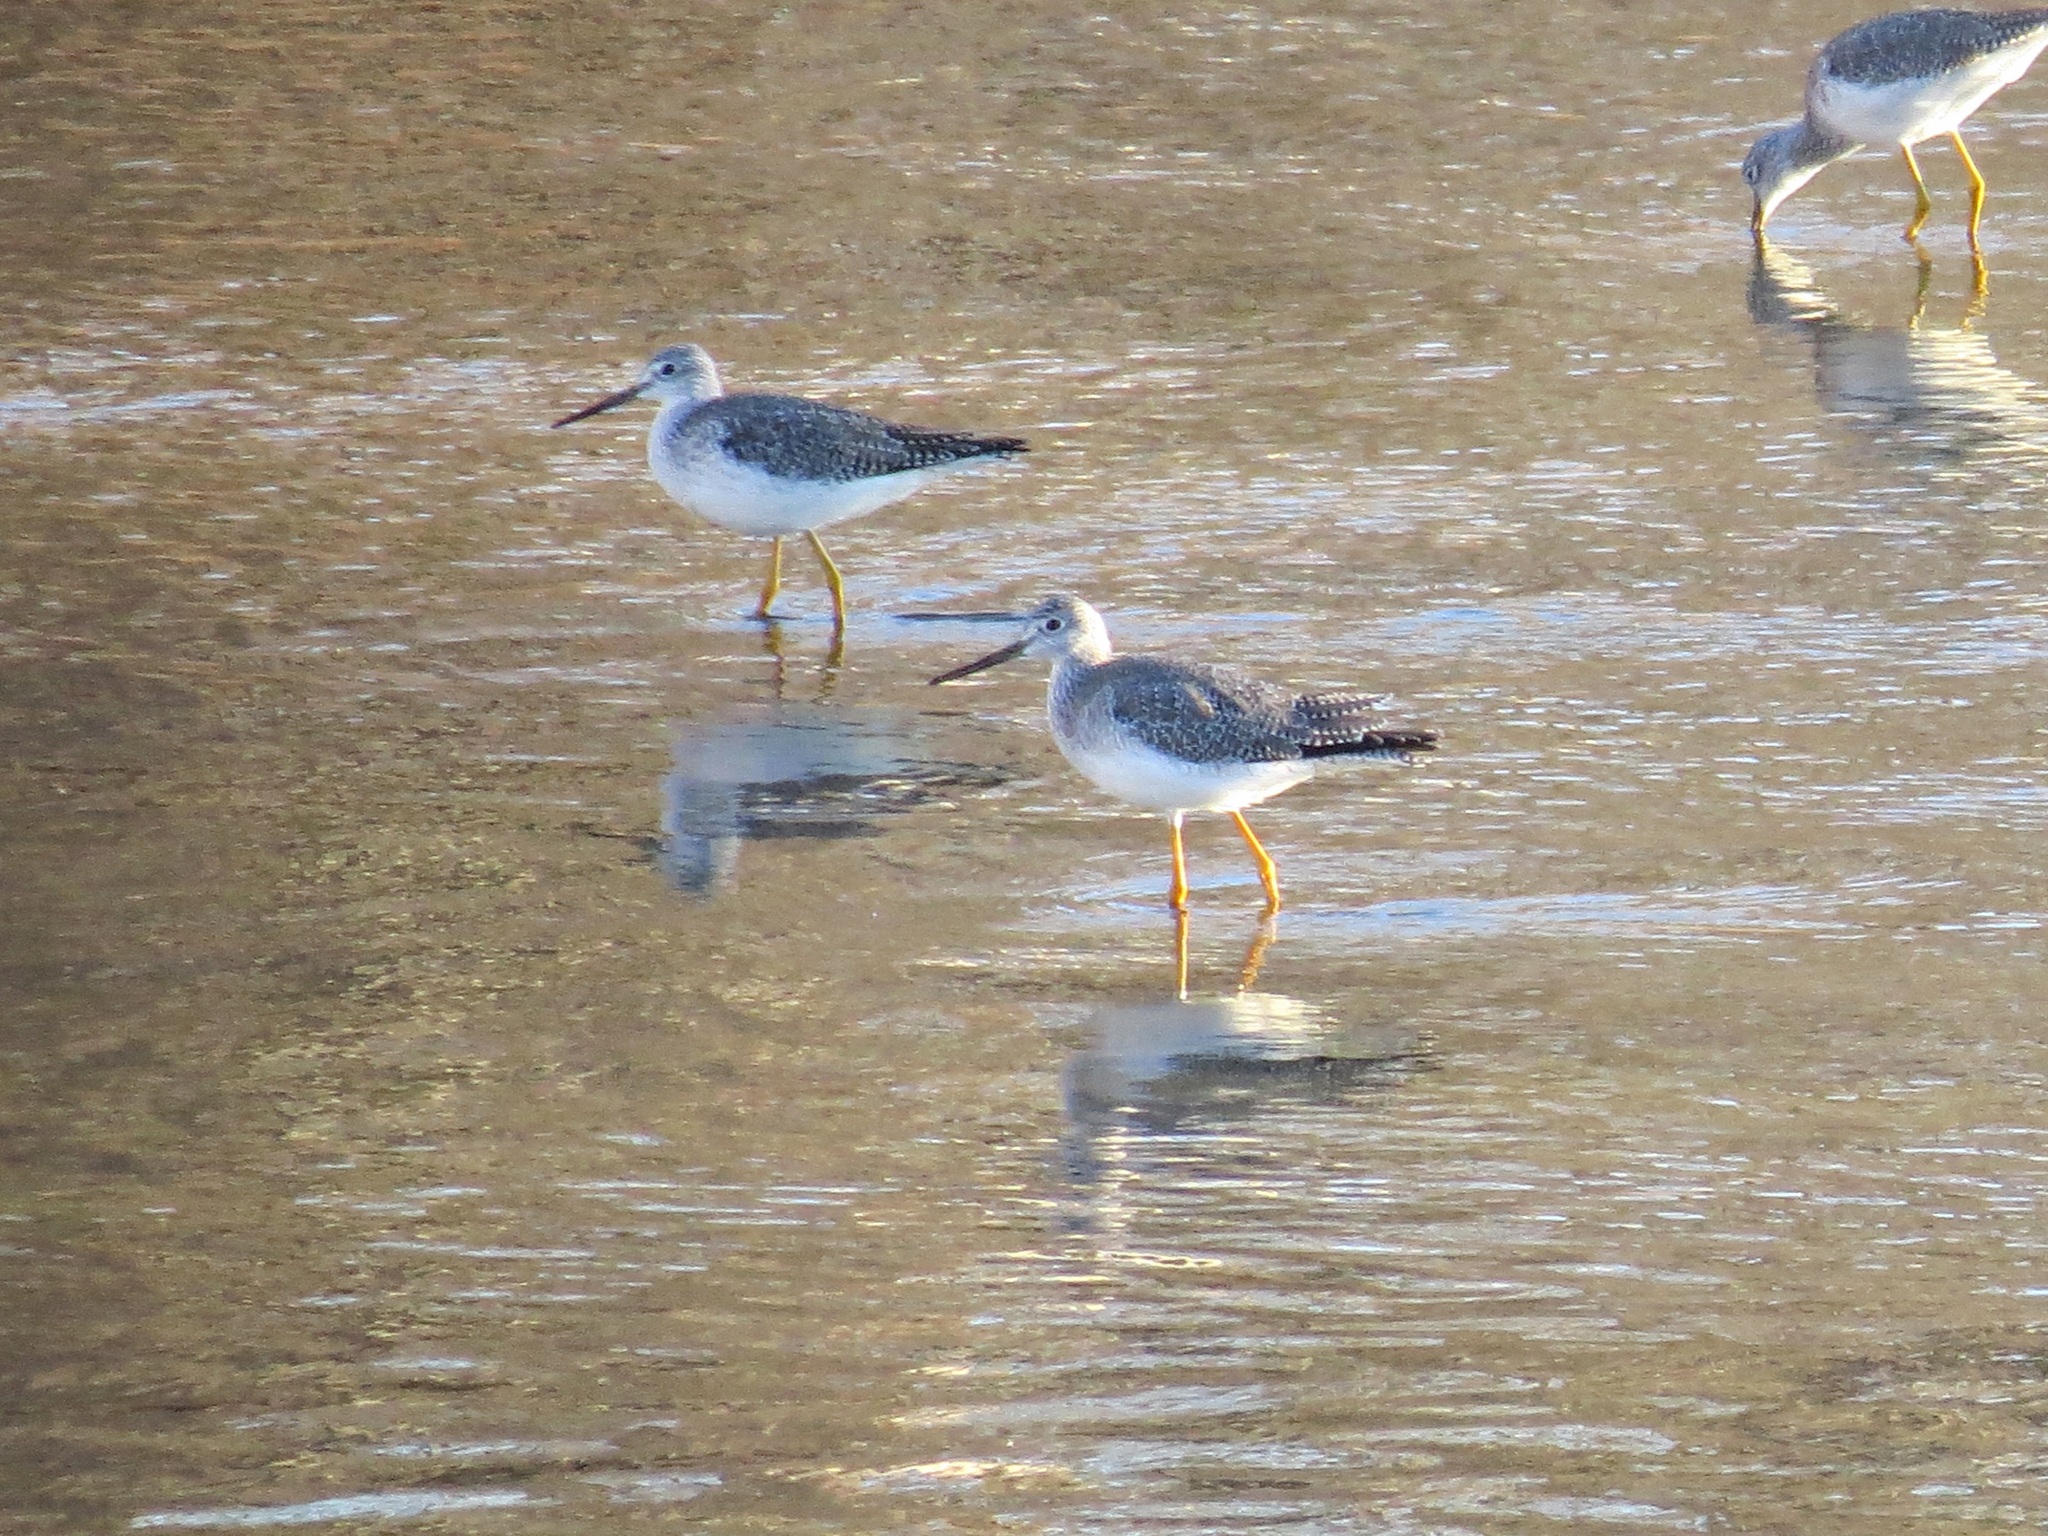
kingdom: Animalia
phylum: Chordata
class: Aves
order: Charadriiformes
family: Scolopacidae
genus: Tringa
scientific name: Tringa melanoleuca
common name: Greater yellowlegs
